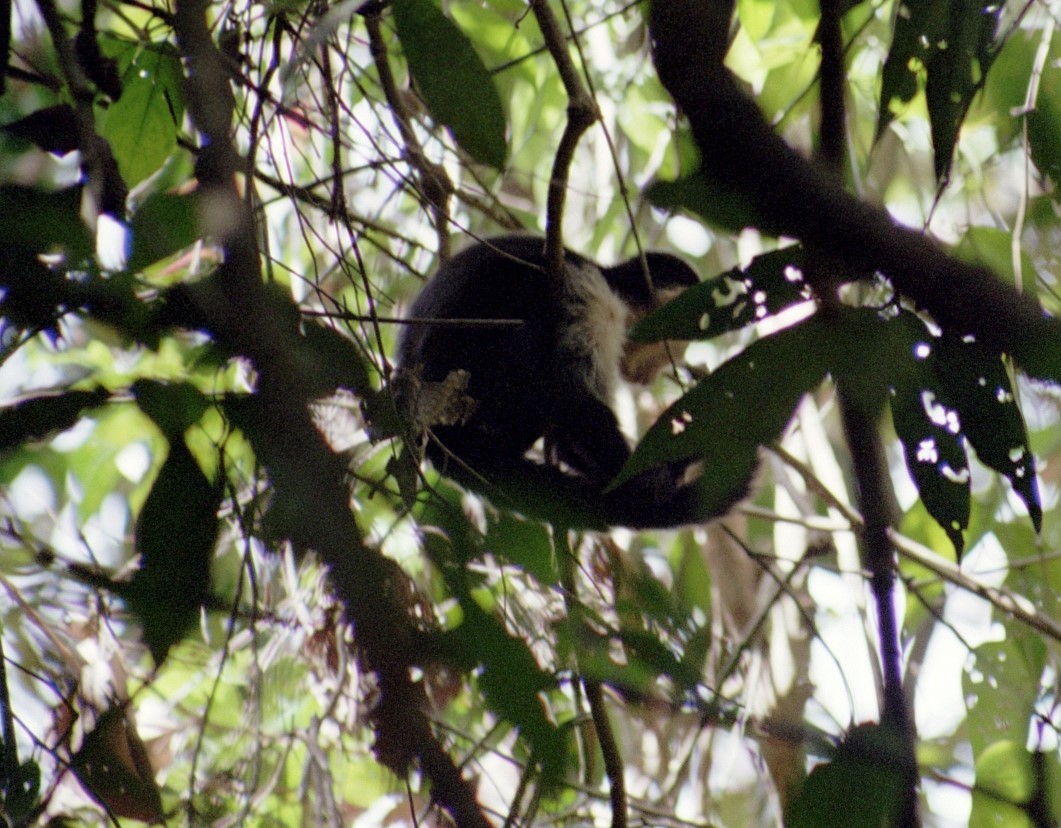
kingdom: Animalia
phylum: Chordata
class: Mammalia
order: Primates
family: Cebidae
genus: Cebus
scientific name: Cebus imitator
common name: Panamanian white-faced capuchin
